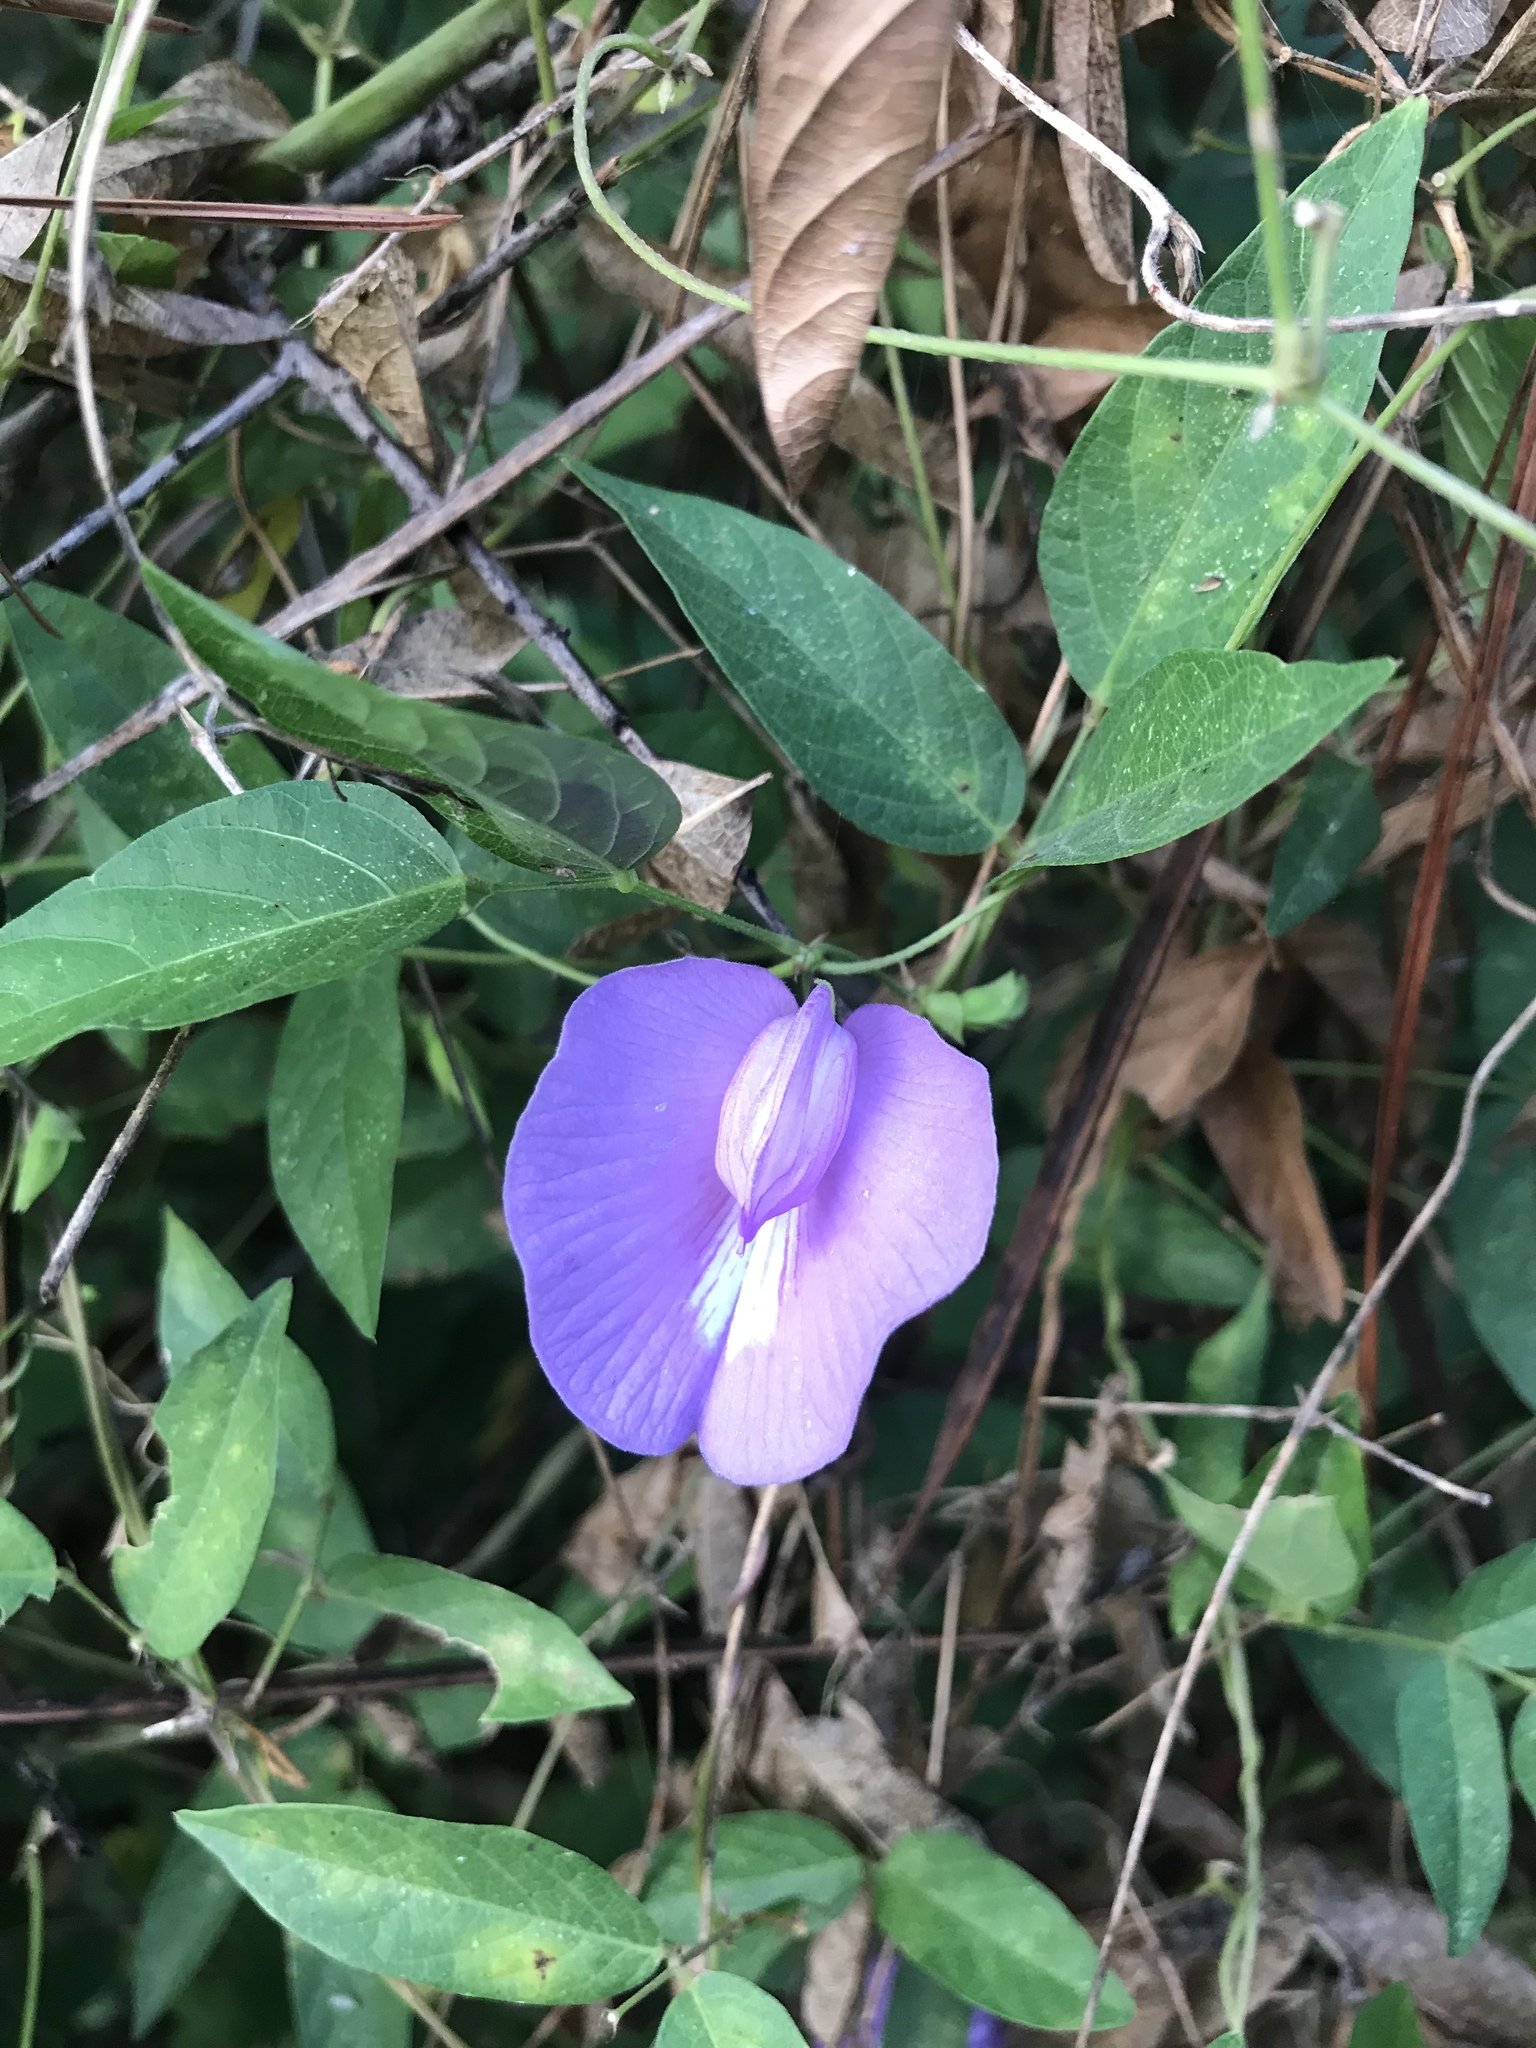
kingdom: Plantae
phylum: Tracheophyta
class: Magnoliopsida
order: Fabales
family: Fabaceae
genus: Centrosema
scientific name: Centrosema virginianum
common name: Butterfly-pea
